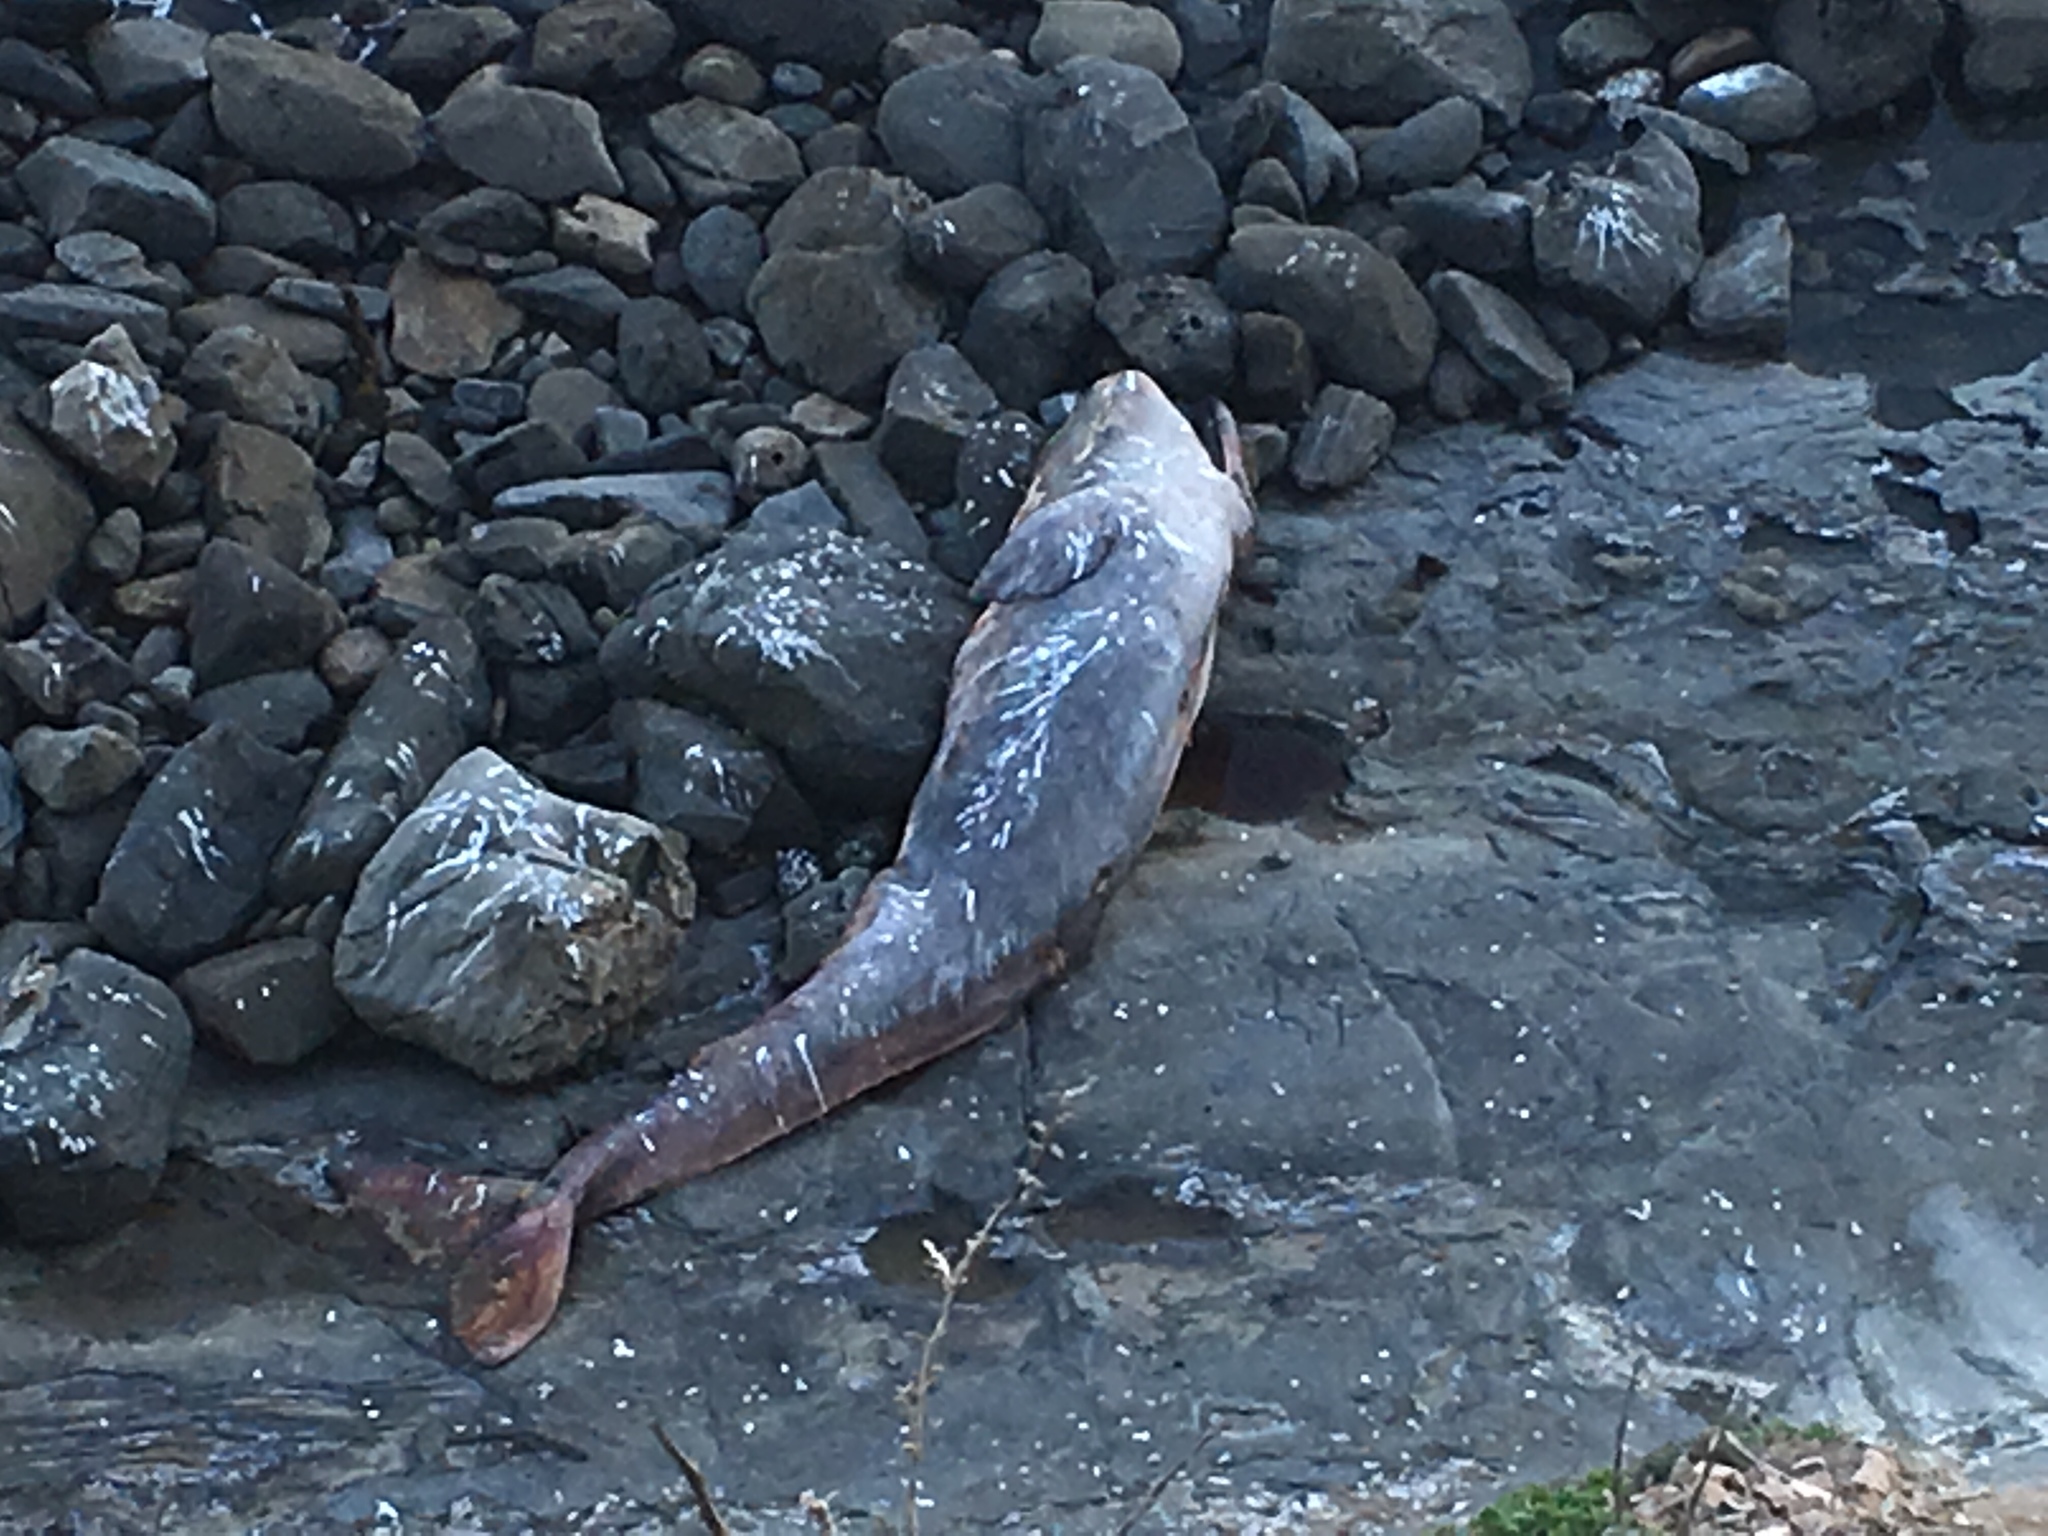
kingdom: Animalia
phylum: Chordata
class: Mammalia
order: Cetacea
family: Eschrichtiidae
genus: Eschrichtius
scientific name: Eschrichtius robustus
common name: Gray whale
